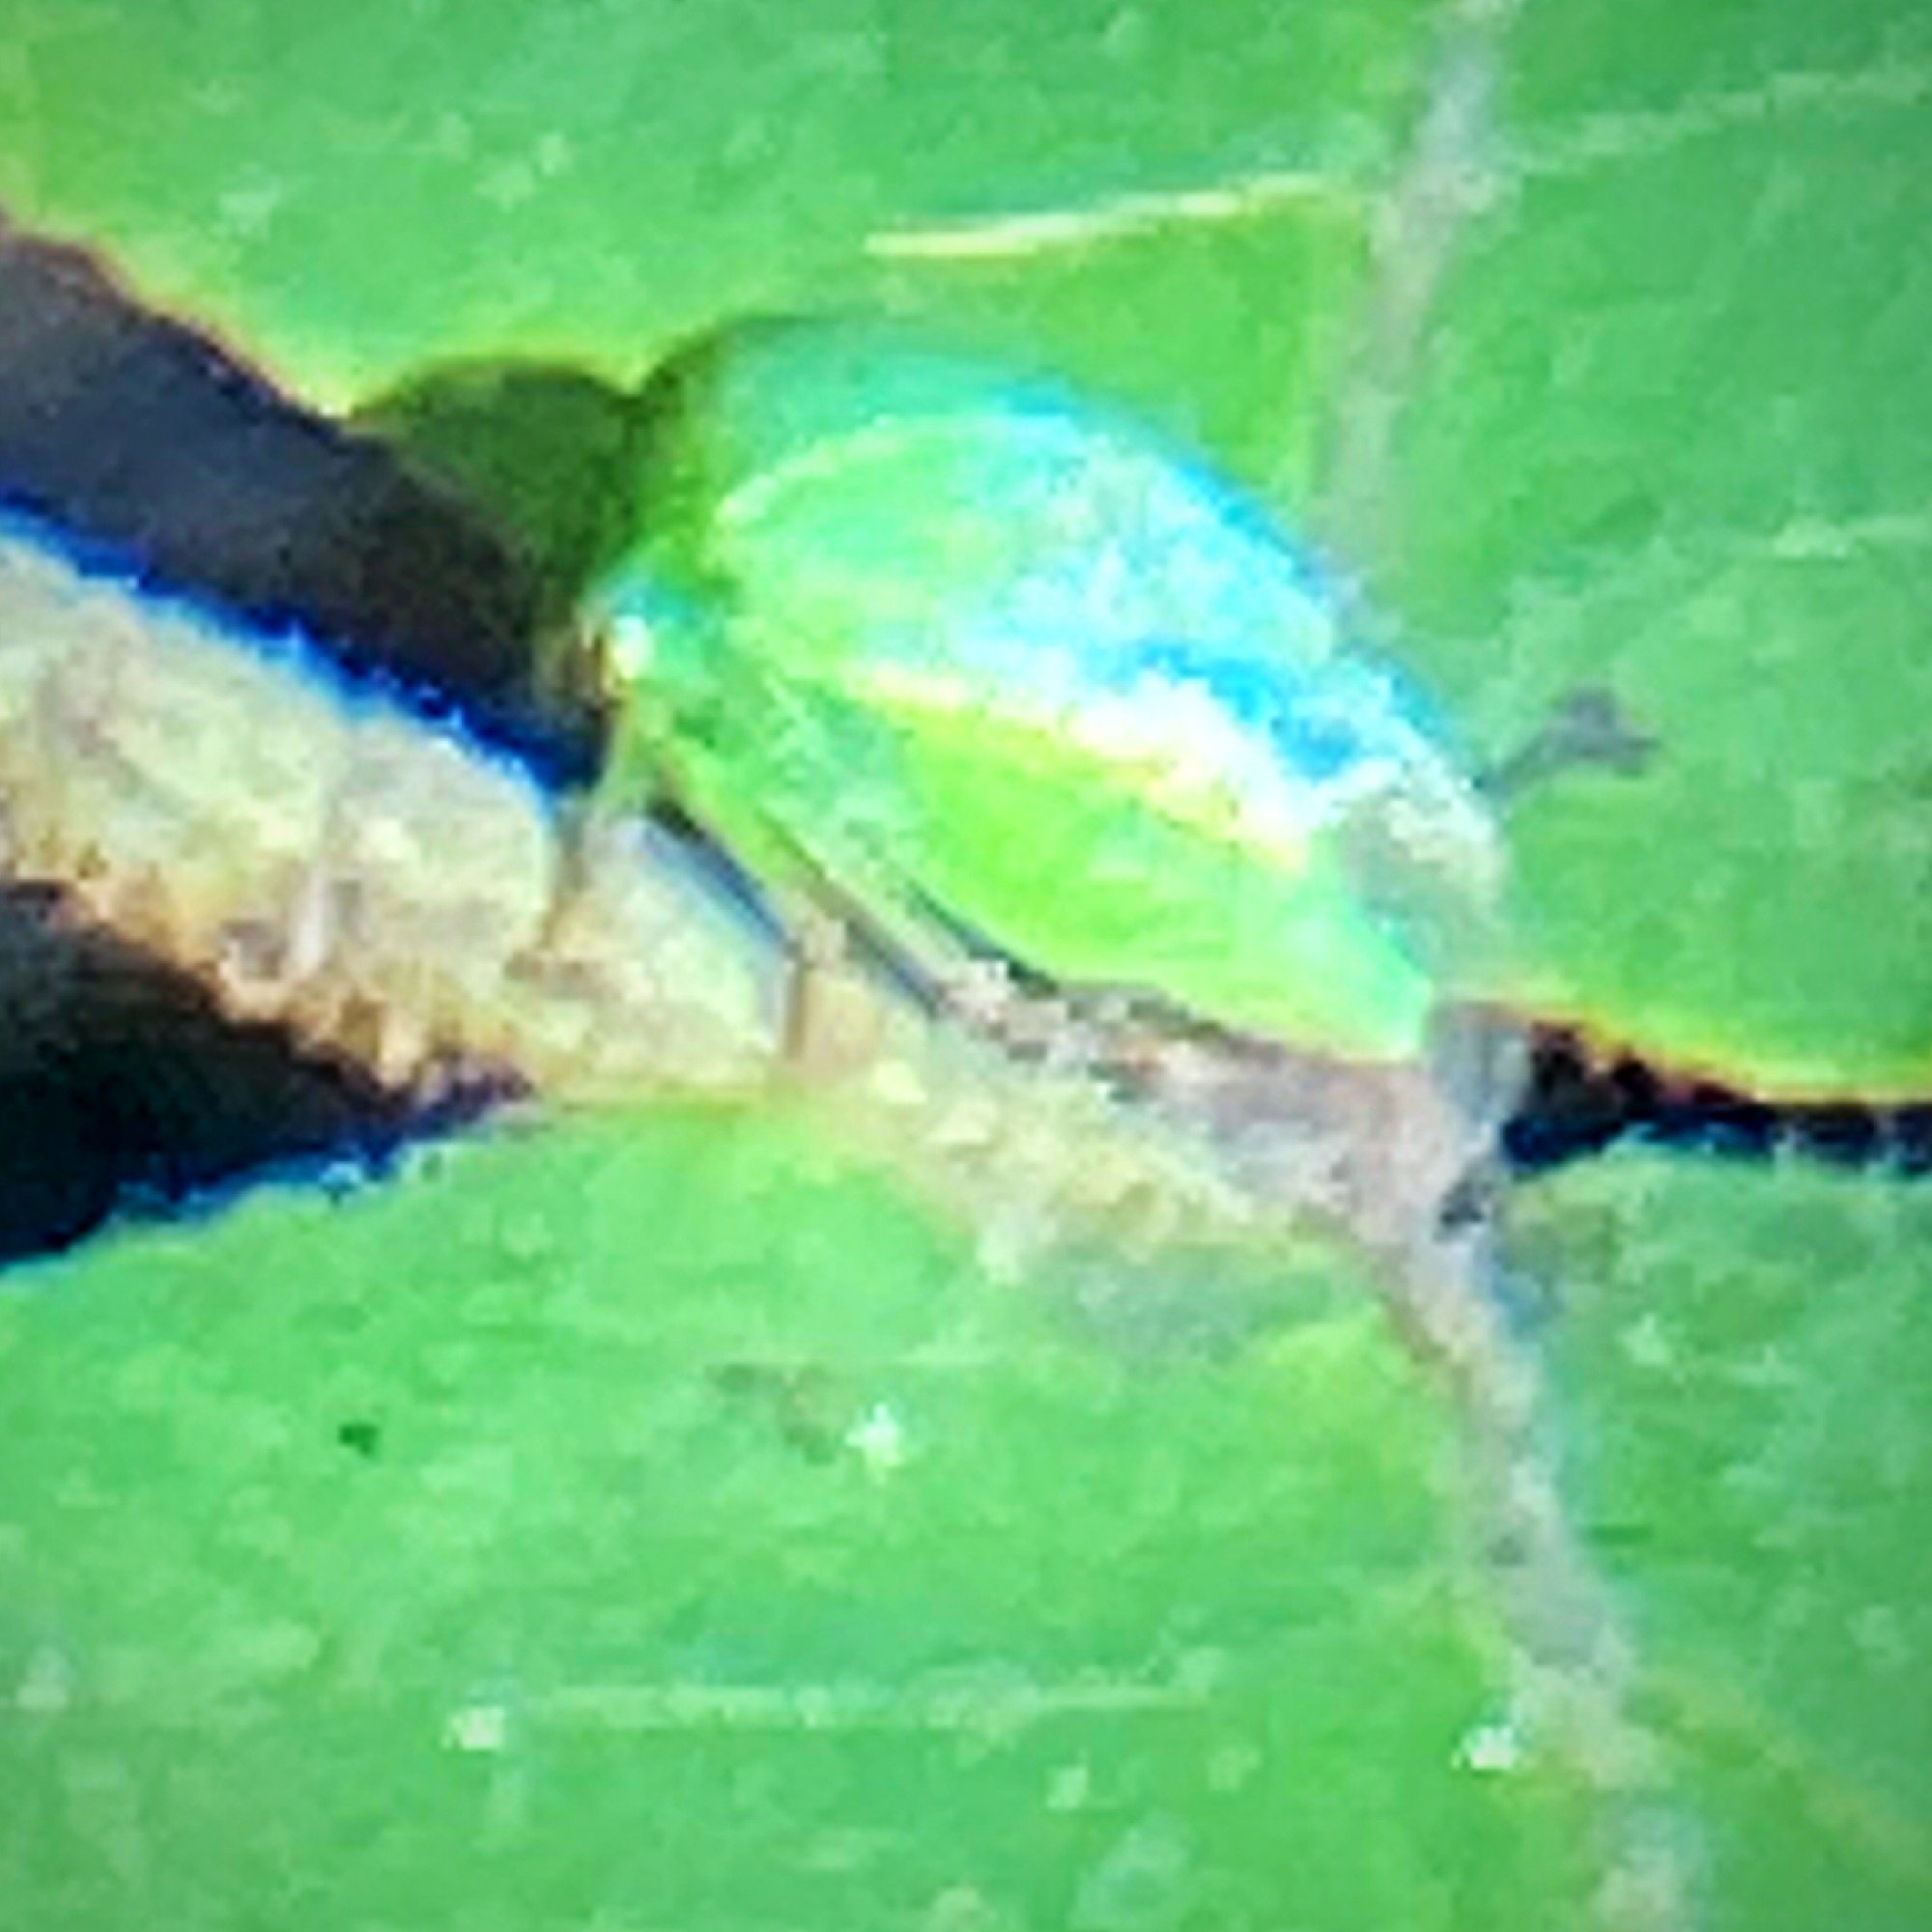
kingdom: Animalia
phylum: Arthropoda
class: Insecta
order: Hemiptera
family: Membracidae
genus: Spissistilus
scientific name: Spissistilus festina
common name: Membracid bug
